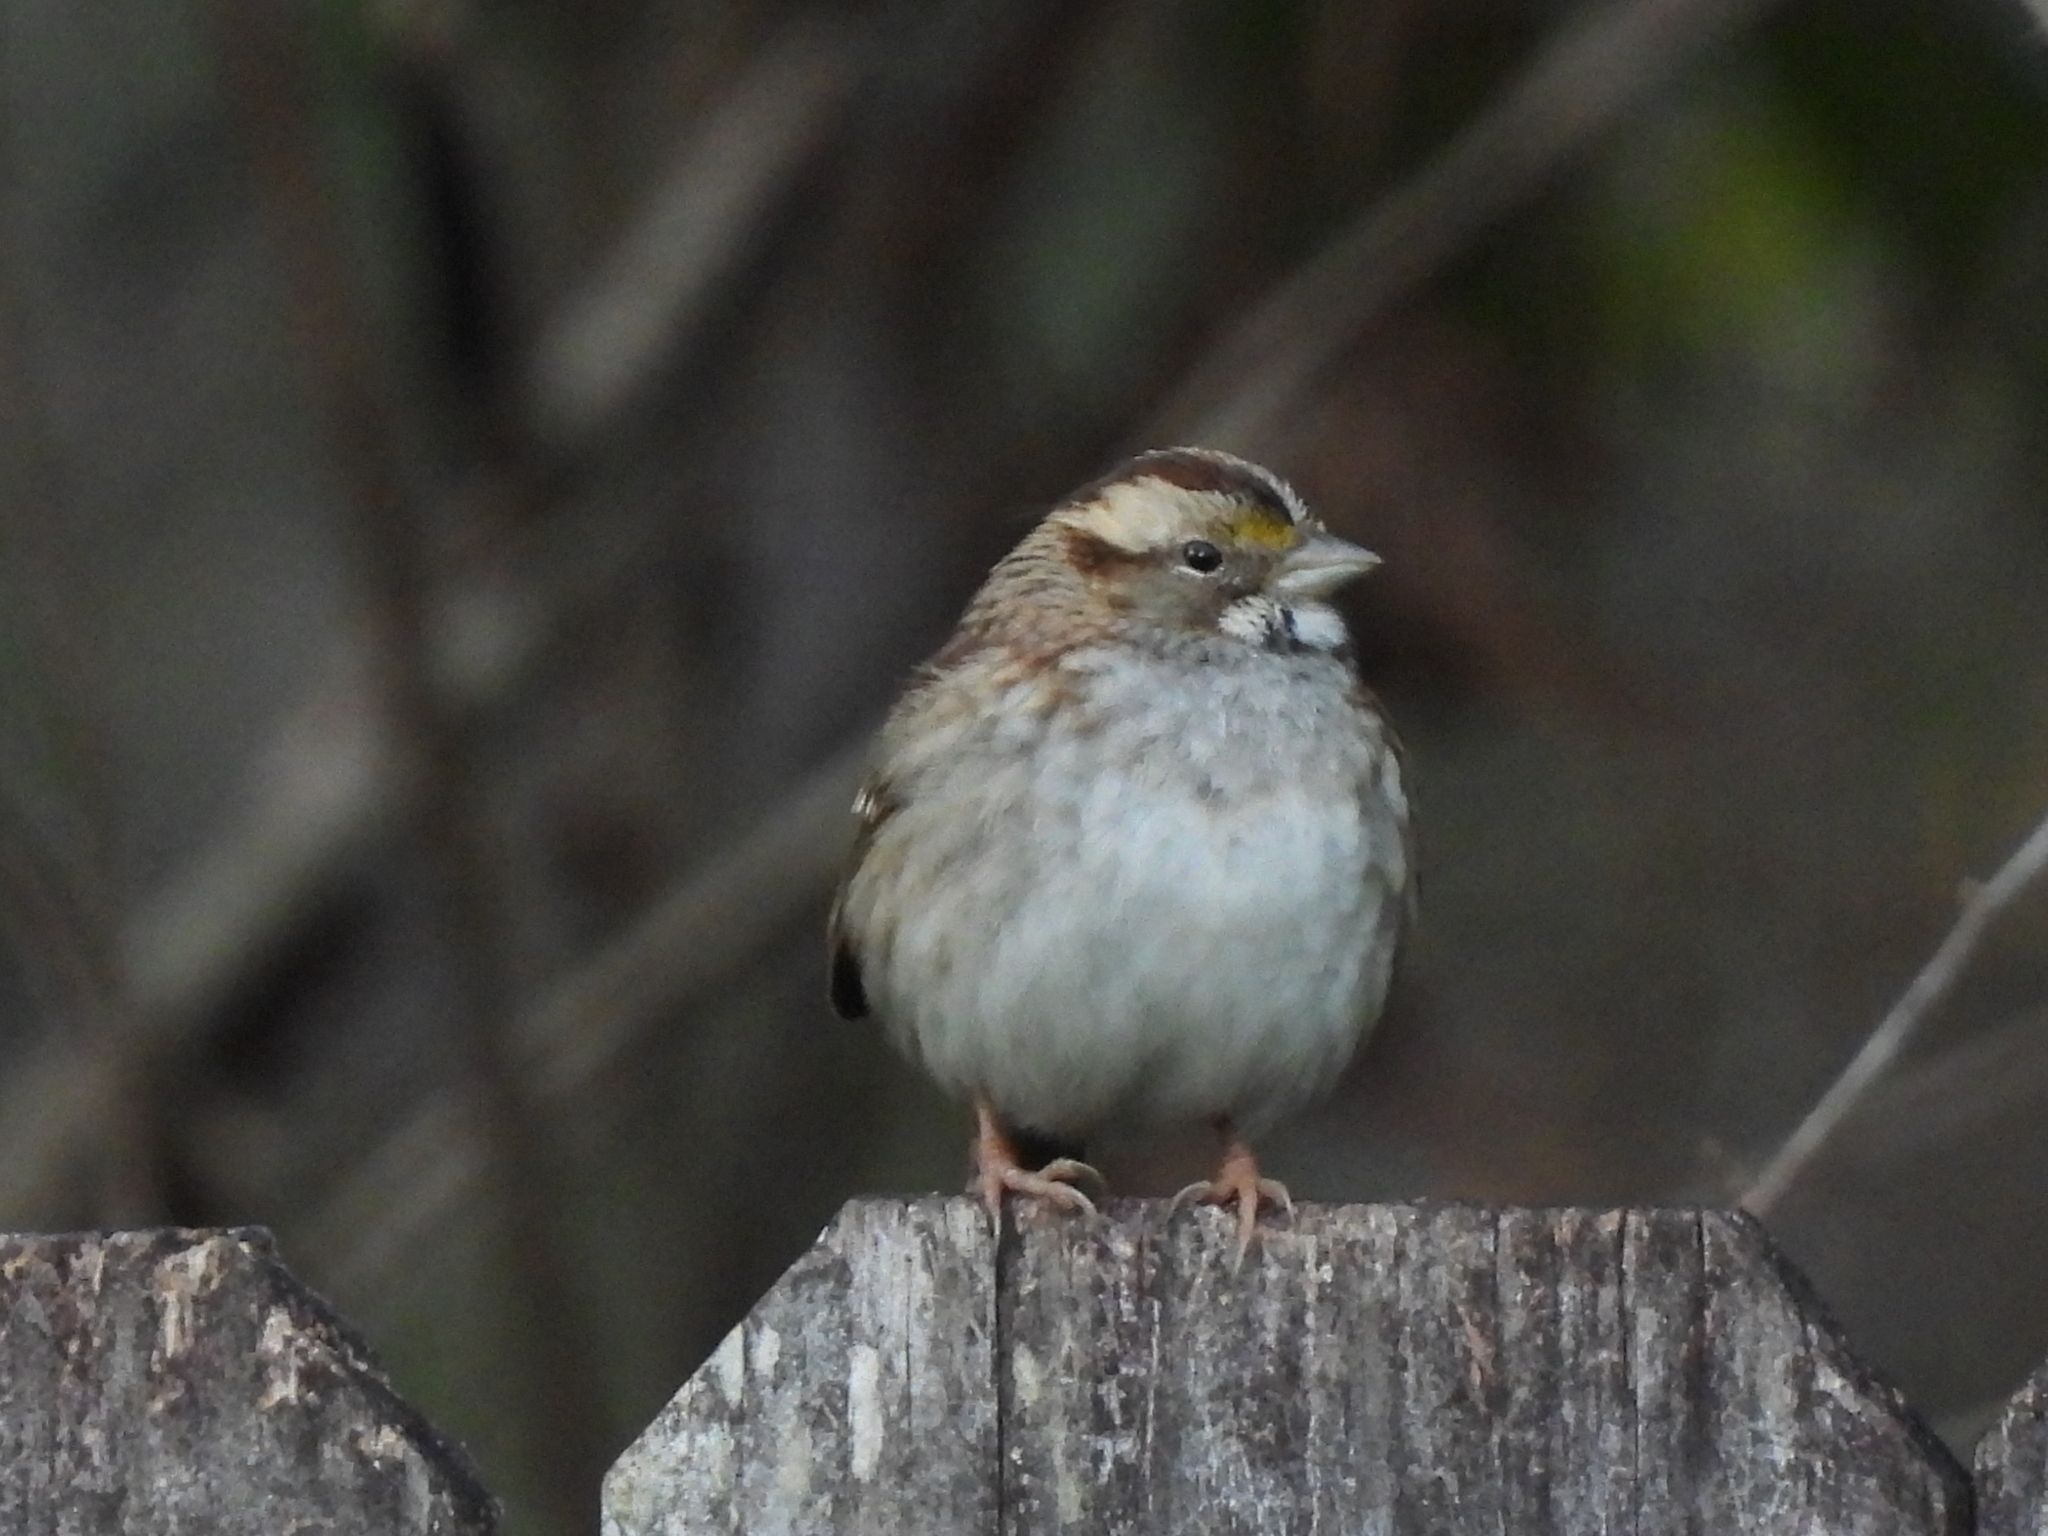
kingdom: Animalia
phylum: Chordata
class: Aves
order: Passeriformes
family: Passerellidae
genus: Zonotrichia
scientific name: Zonotrichia albicollis
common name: White-throated sparrow
